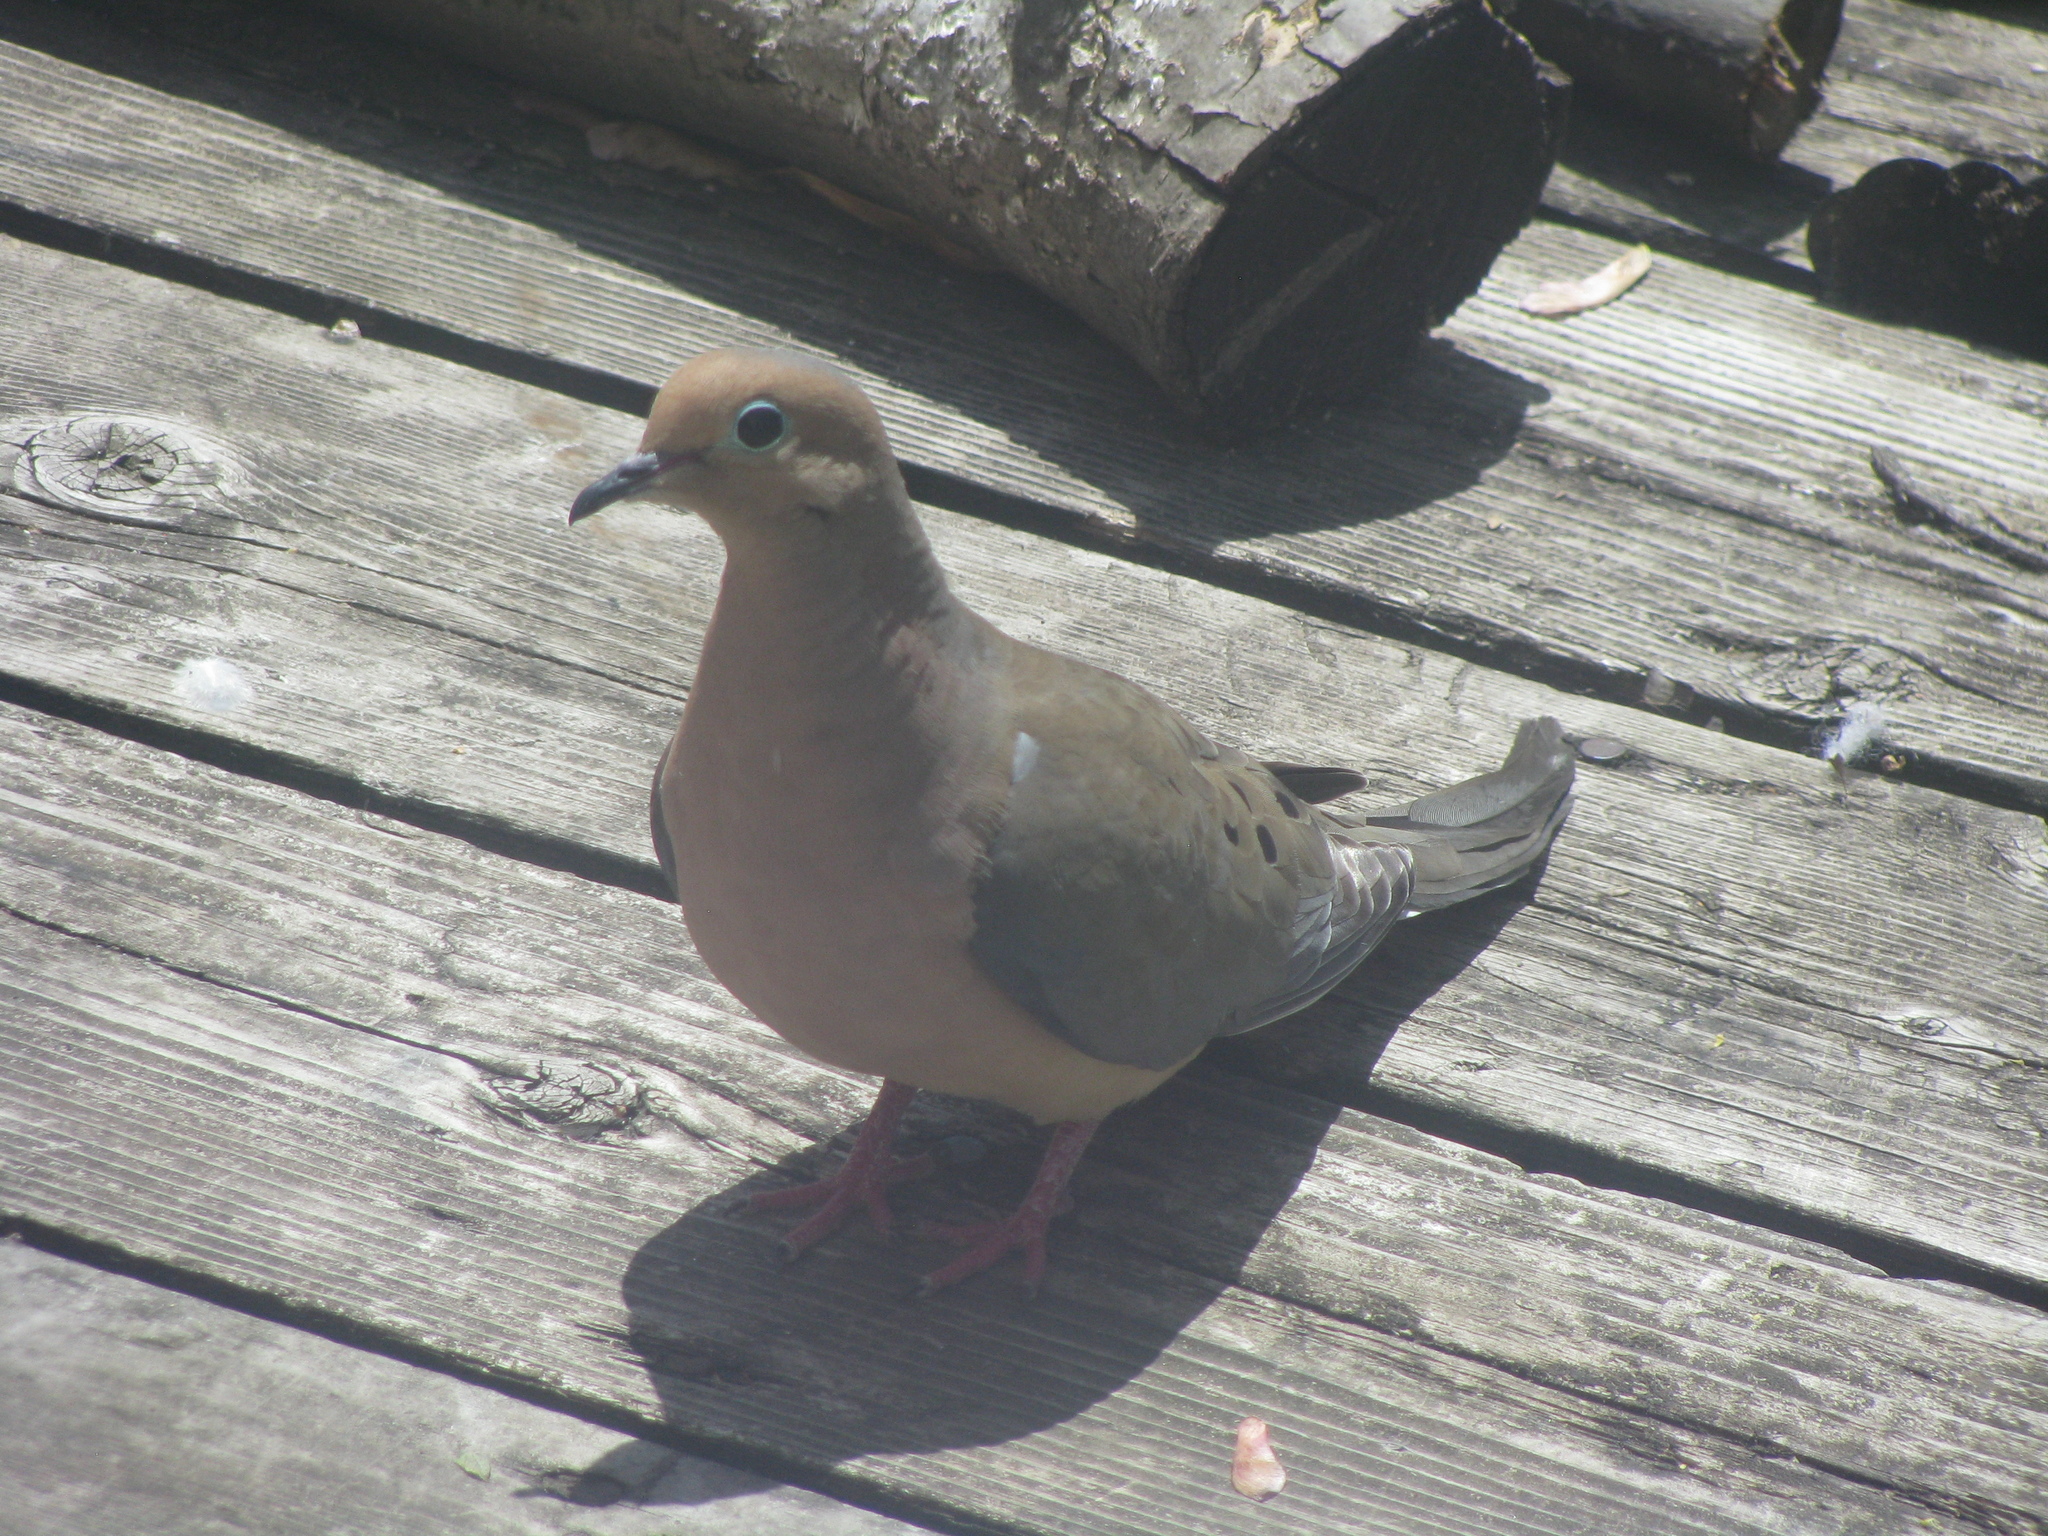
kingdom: Animalia
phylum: Chordata
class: Aves
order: Columbiformes
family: Columbidae
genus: Zenaida
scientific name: Zenaida macroura
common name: Mourning dove
